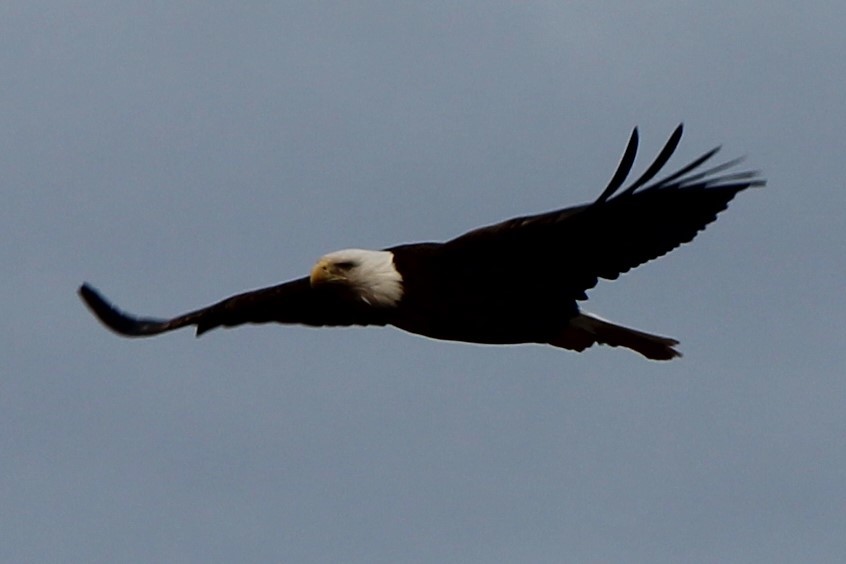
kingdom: Animalia
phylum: Chordata
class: Aves
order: Accipitriformes
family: Accipitridae
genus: Haliaeetus
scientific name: Haliaeetus leucocephalus
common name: Bald eagle
